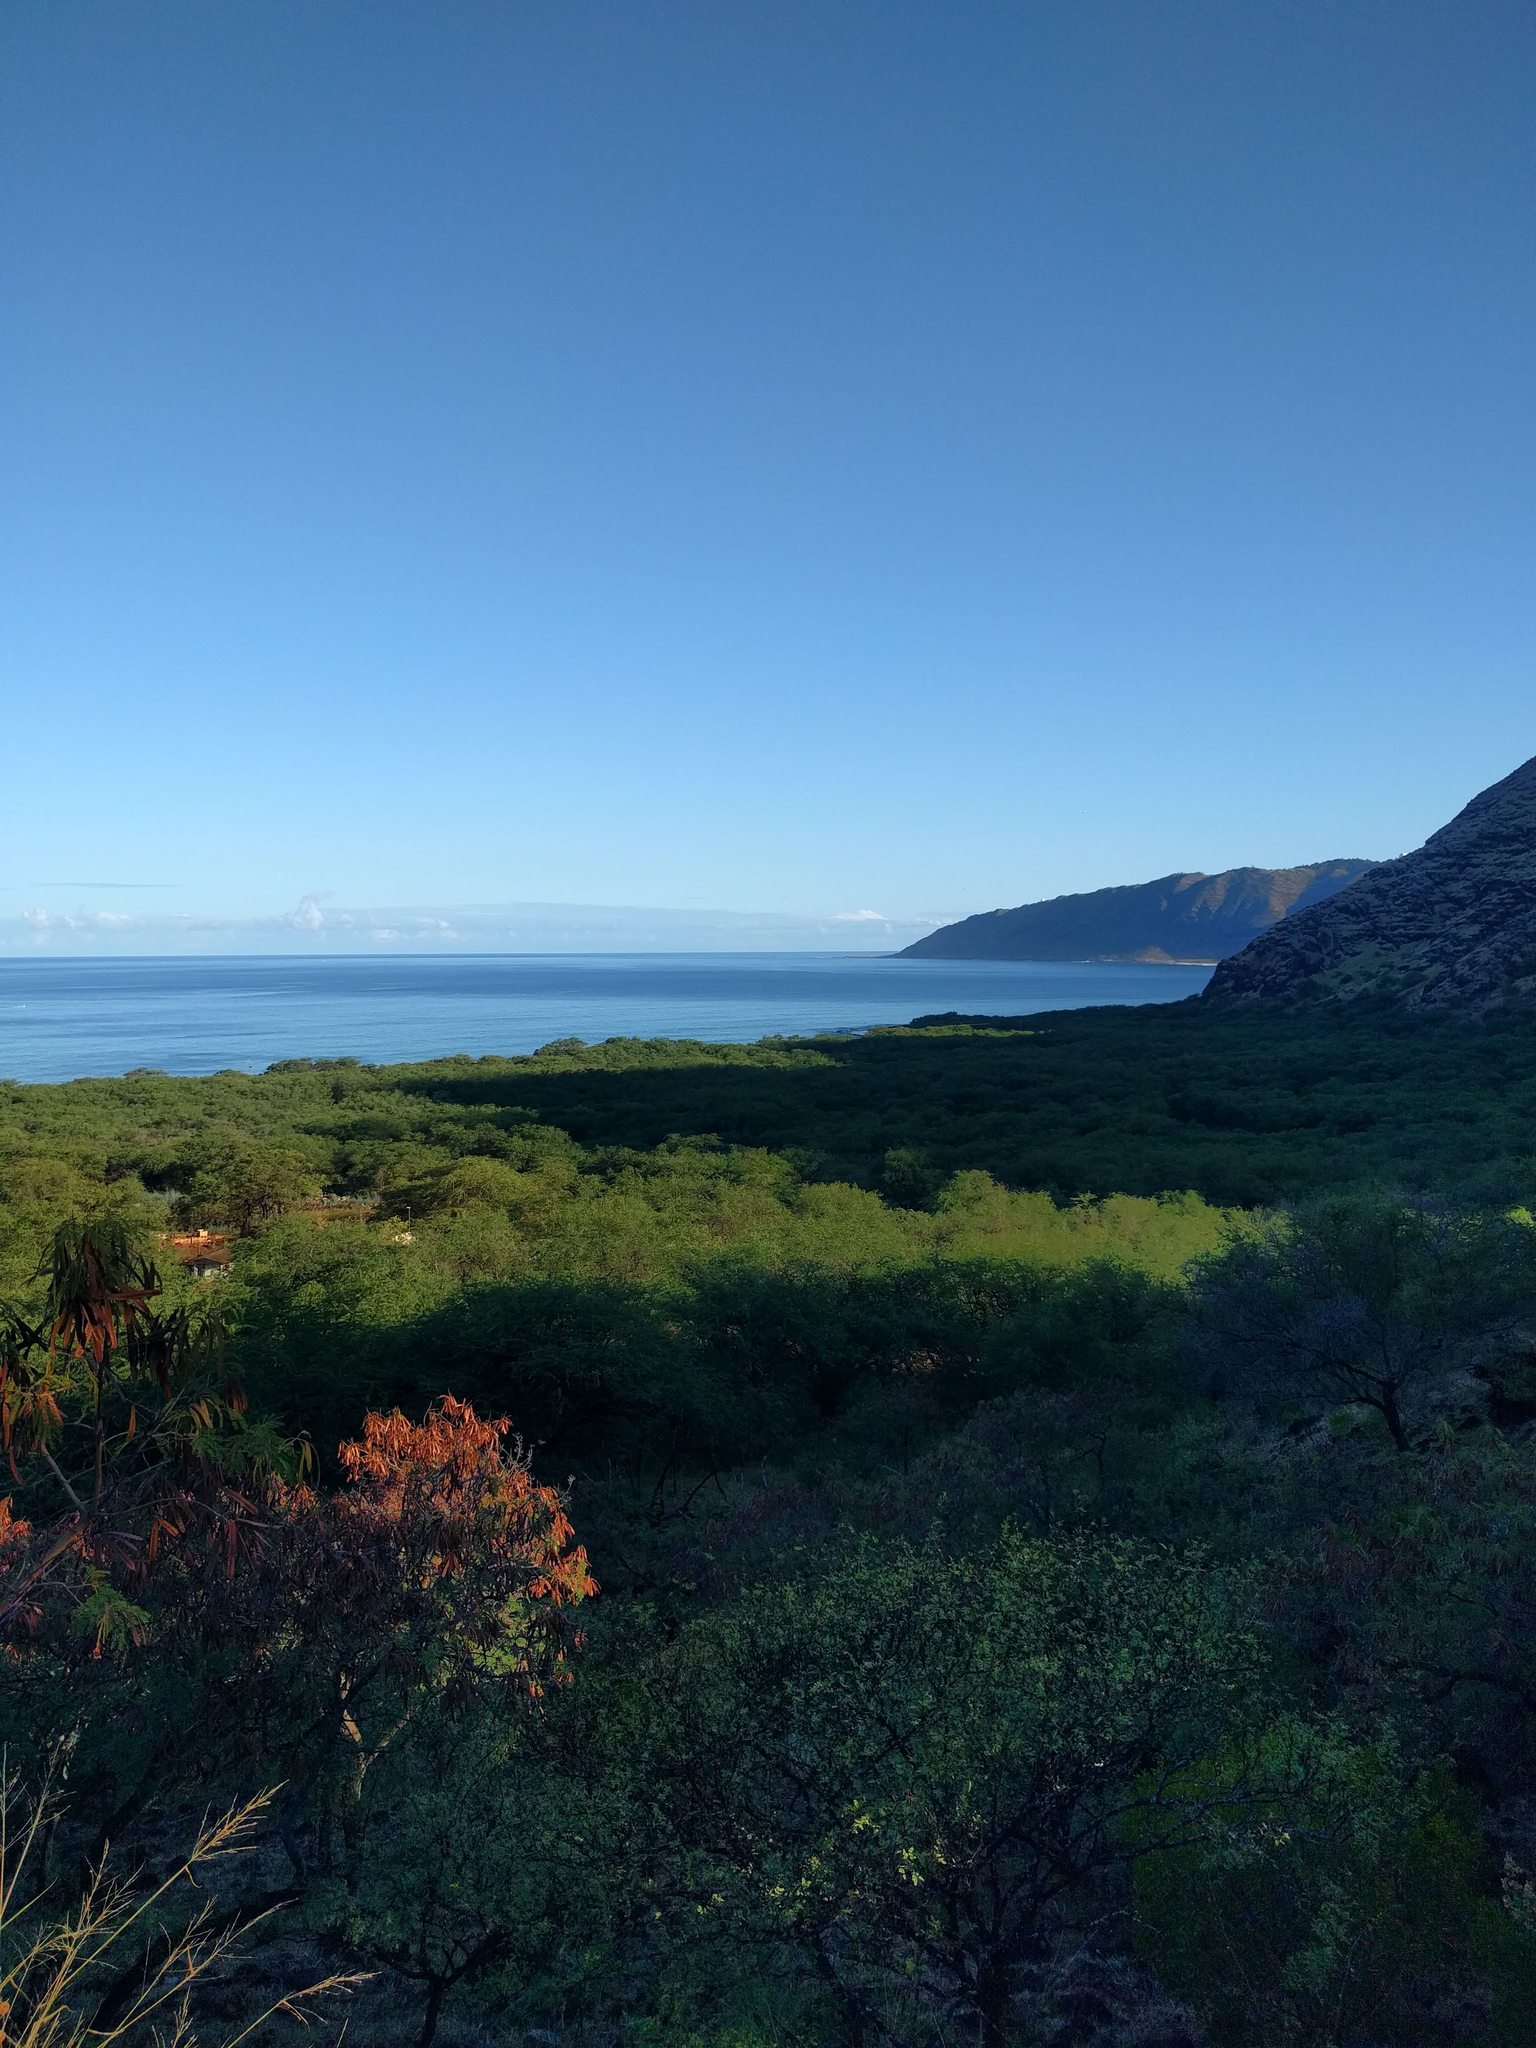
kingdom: Plantae
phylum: Tracheophyta
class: Magnoliopsida
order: Fabales
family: Fabaceae
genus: Leucaena
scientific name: Leucaena leucocephala
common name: White leadtree
